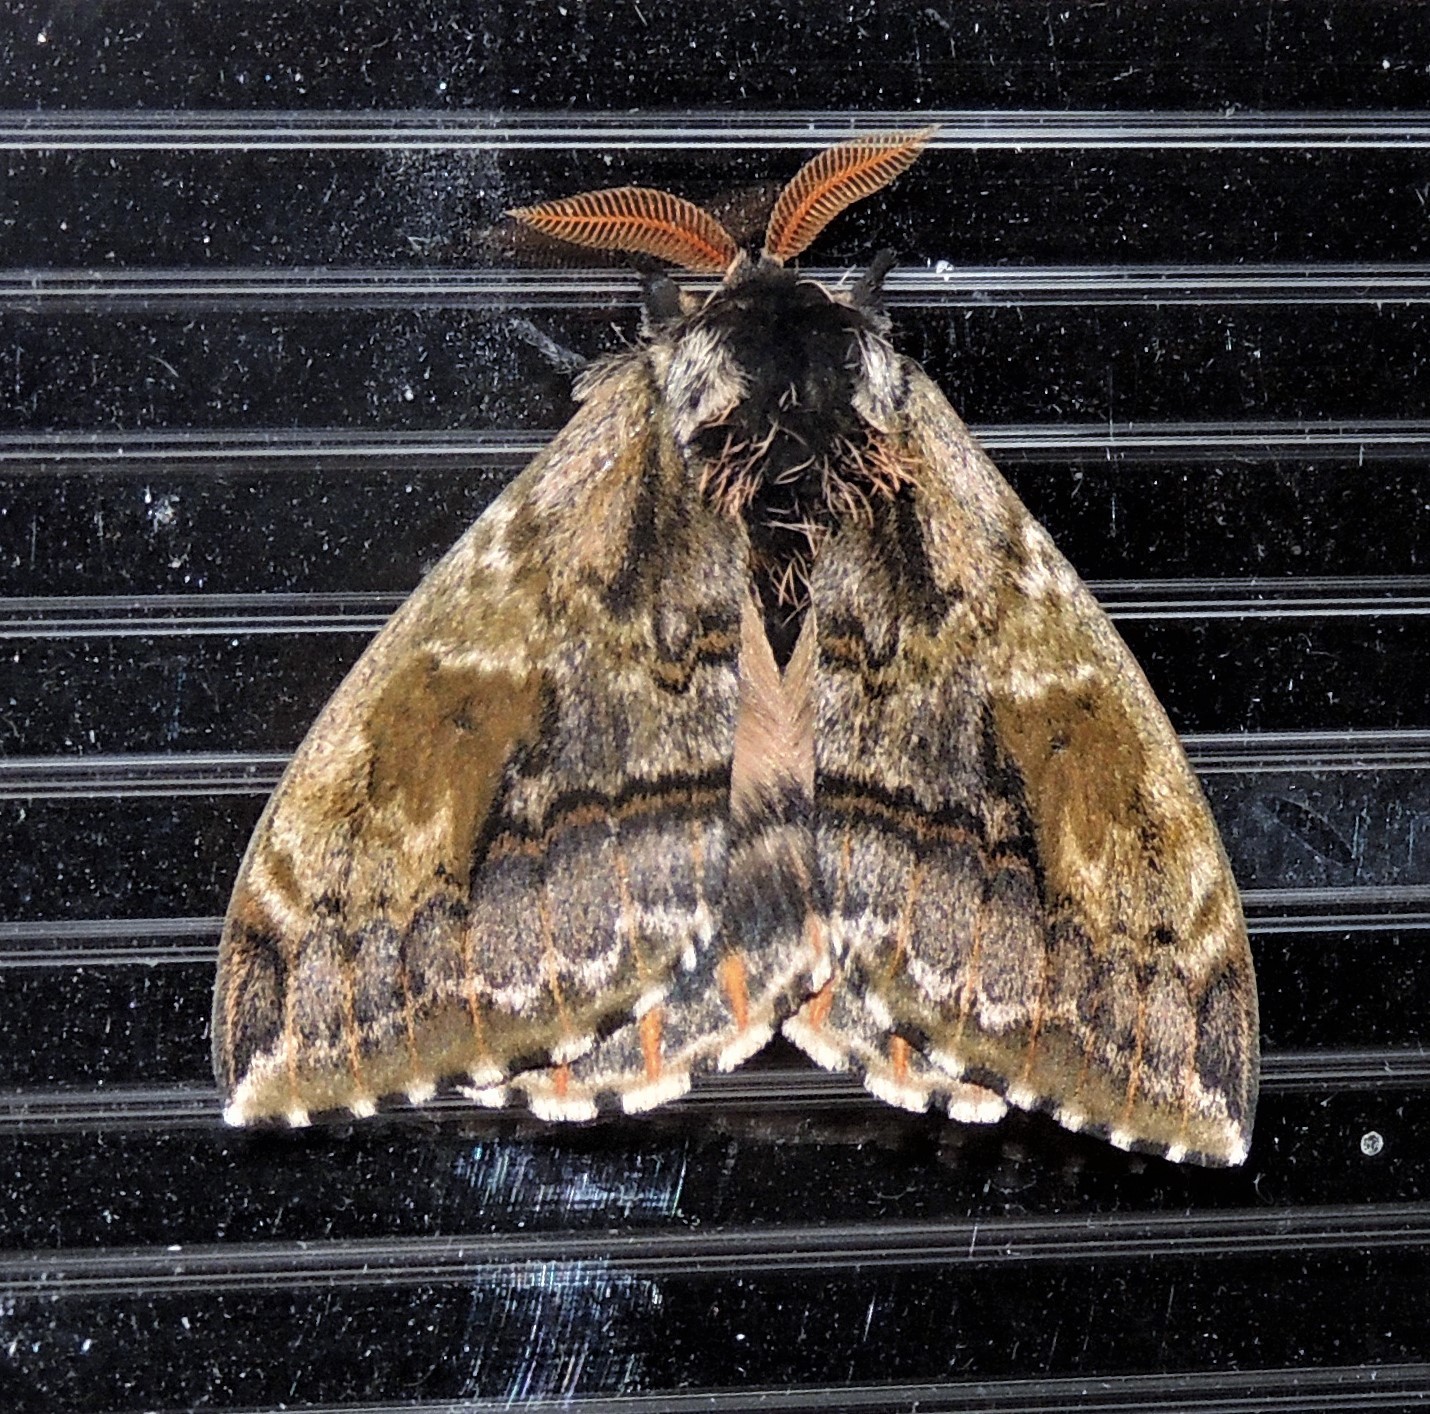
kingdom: Animalia
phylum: Arthropoda
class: Insecta
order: Lepidoptera
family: Saturniidae
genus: Molippa
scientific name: Molippa binasa
